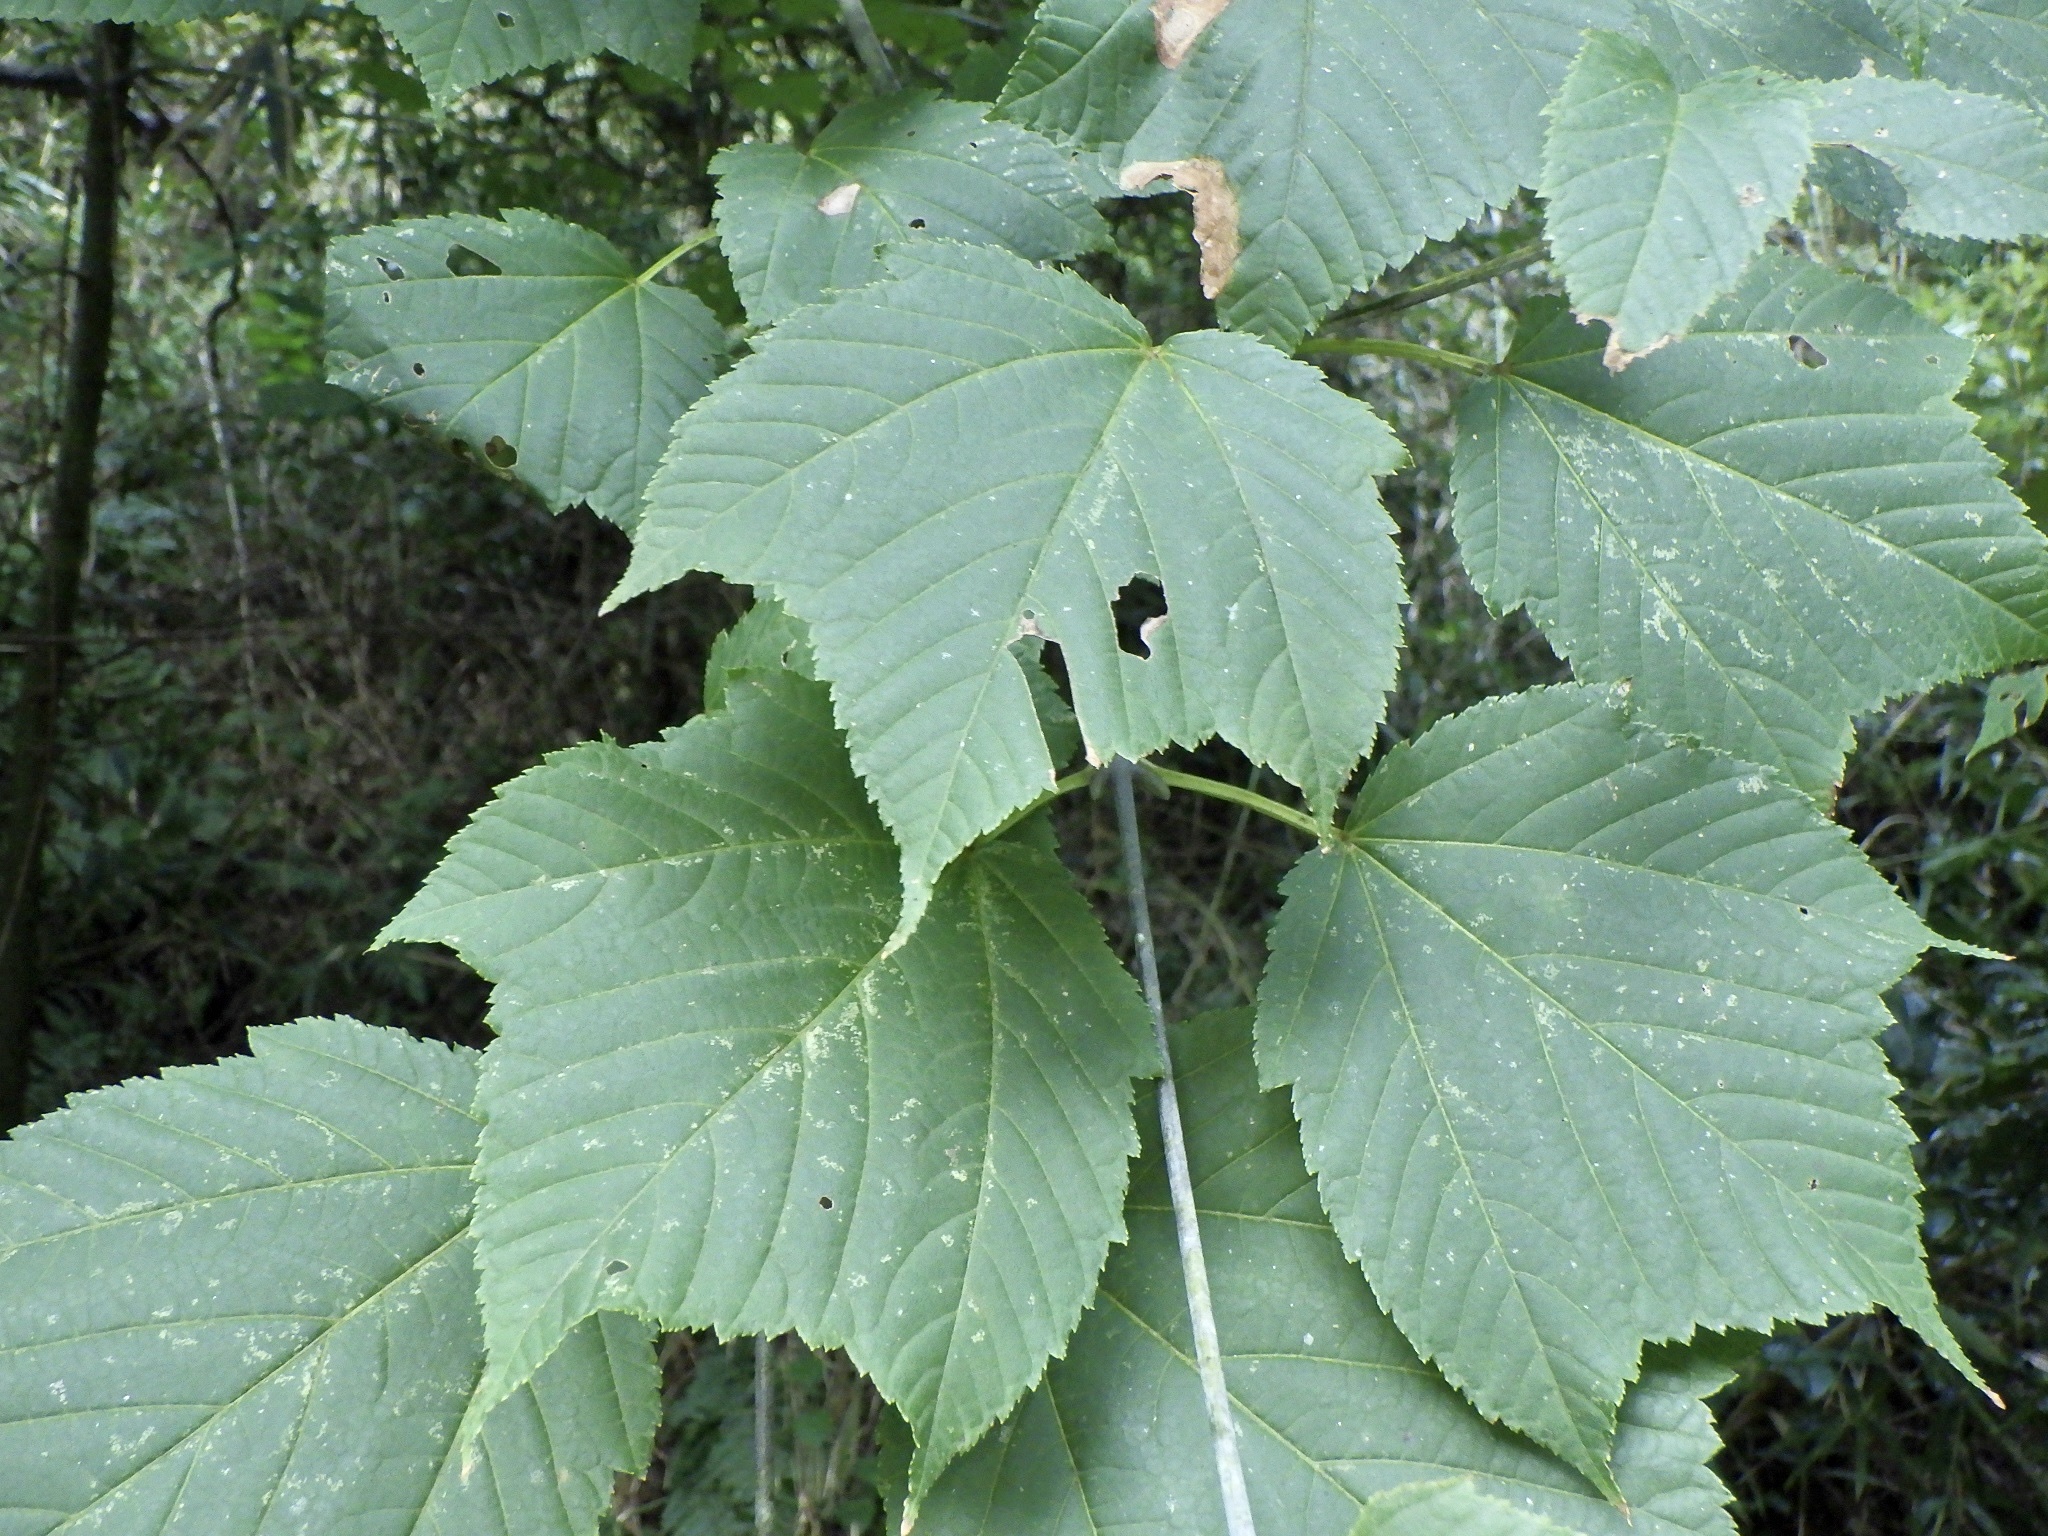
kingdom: Plantae
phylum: Tracheophyta
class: Magnoliopsida
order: Sapindales
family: Sapindaceae
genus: Acer
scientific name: Acer rufinerve
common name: Red veined maple
